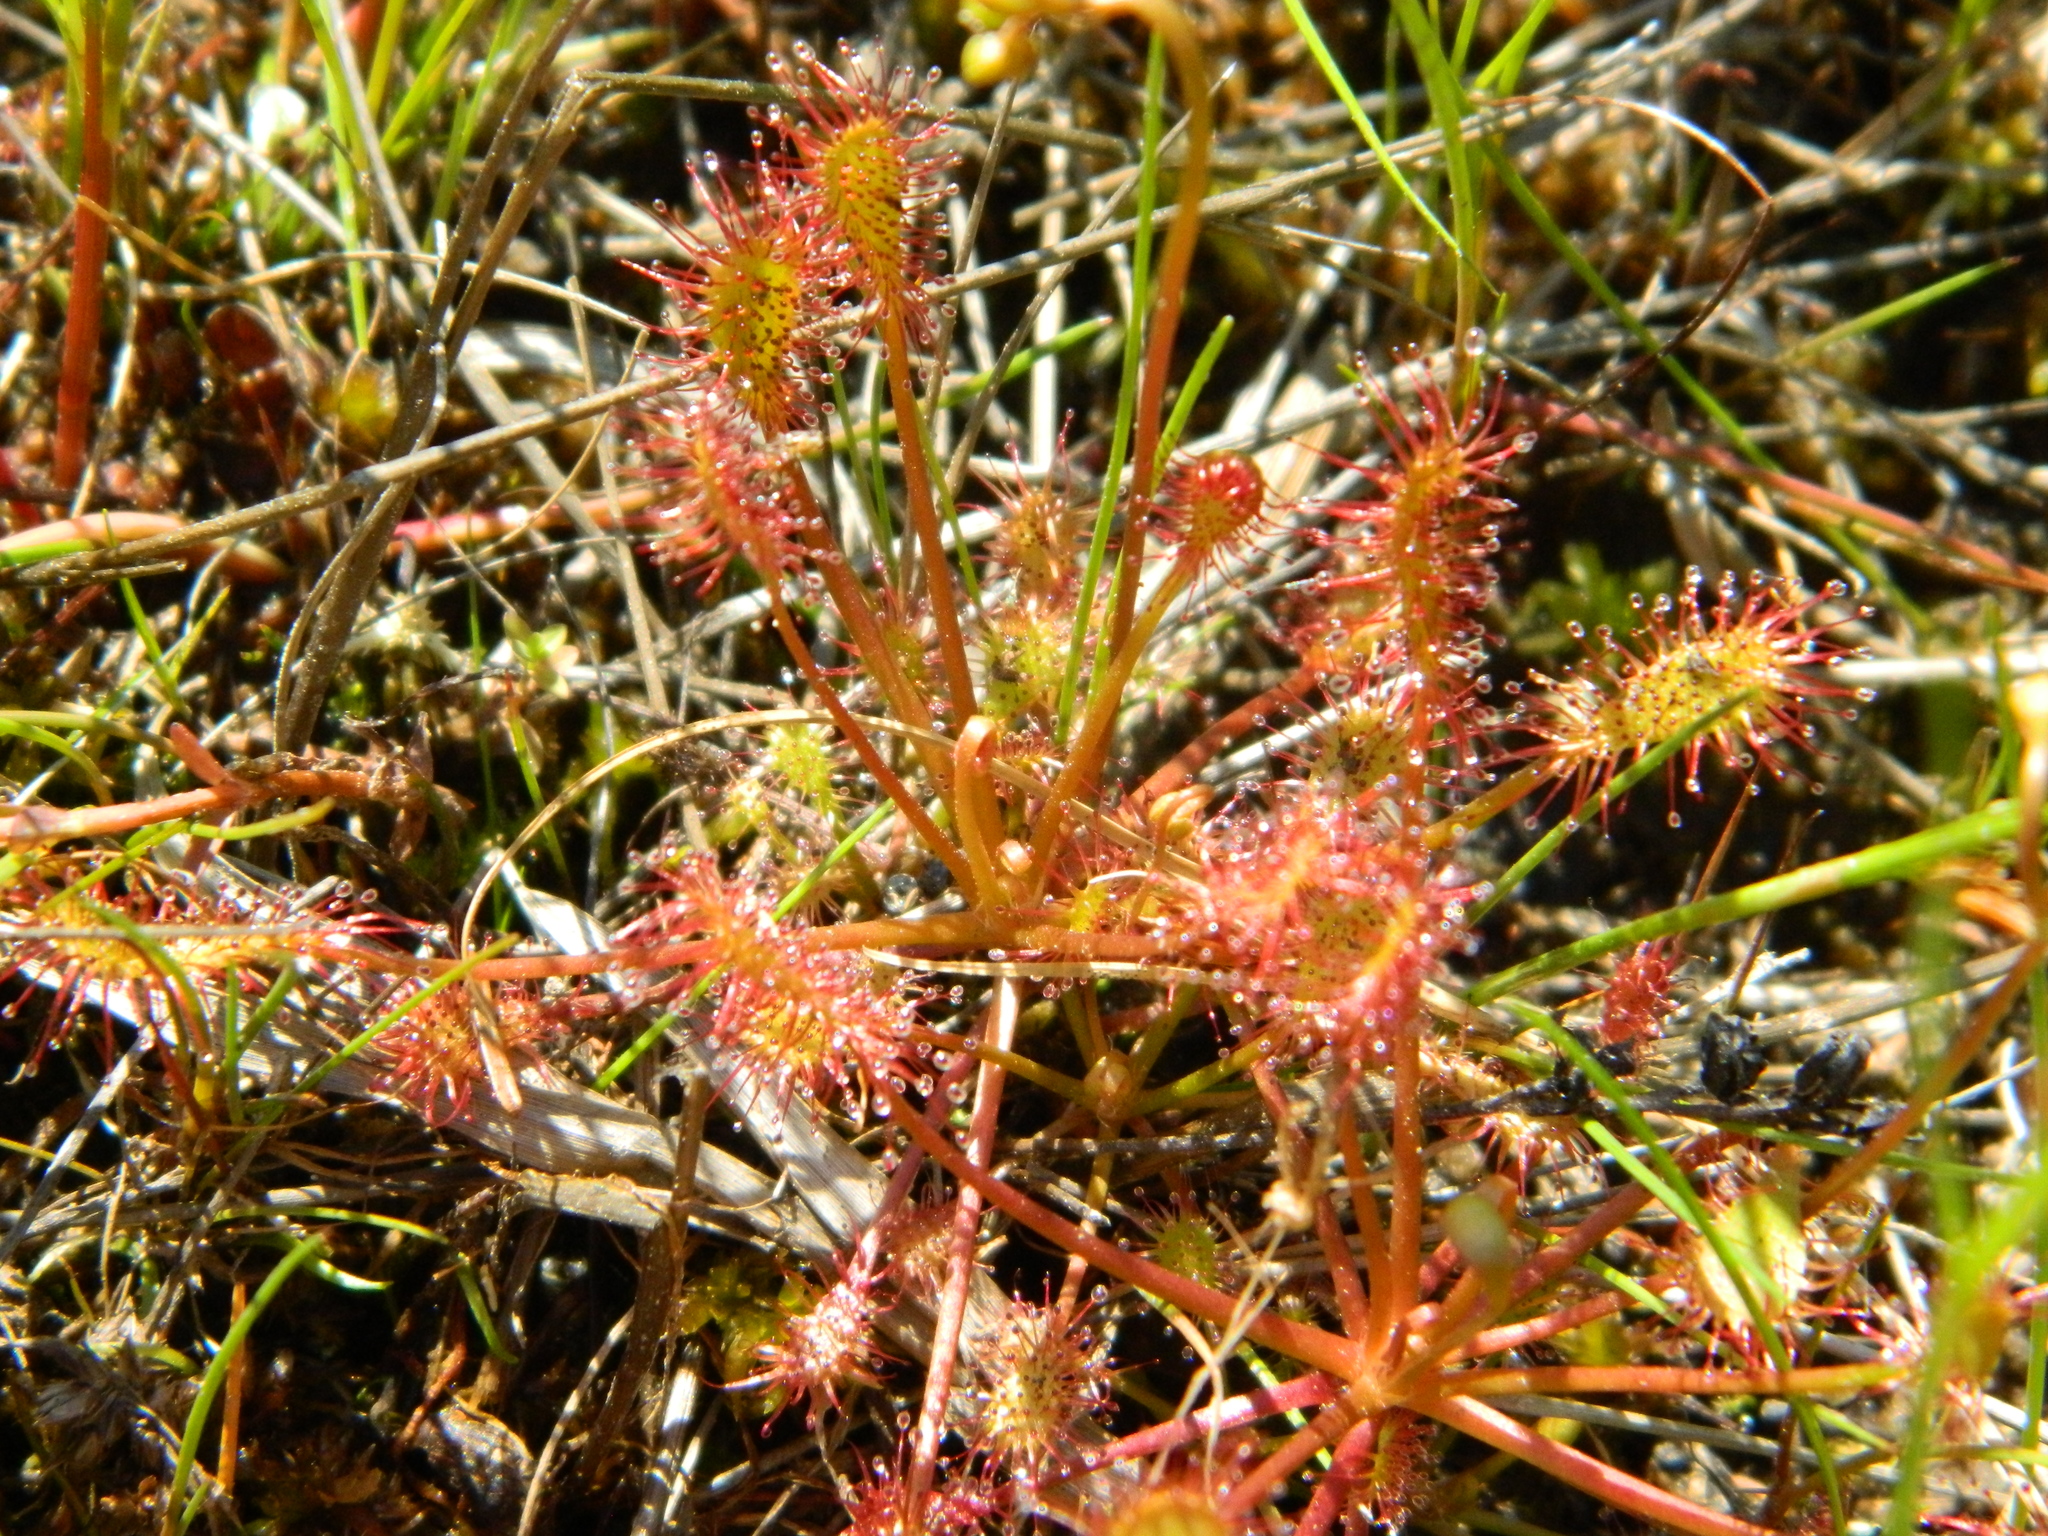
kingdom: Plantae
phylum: Tracheophyta
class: Magnoliopsida
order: Caryophyllales
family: Droseraceae
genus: Drosera
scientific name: Drosera intermedia
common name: Oblong-leaved sundew
